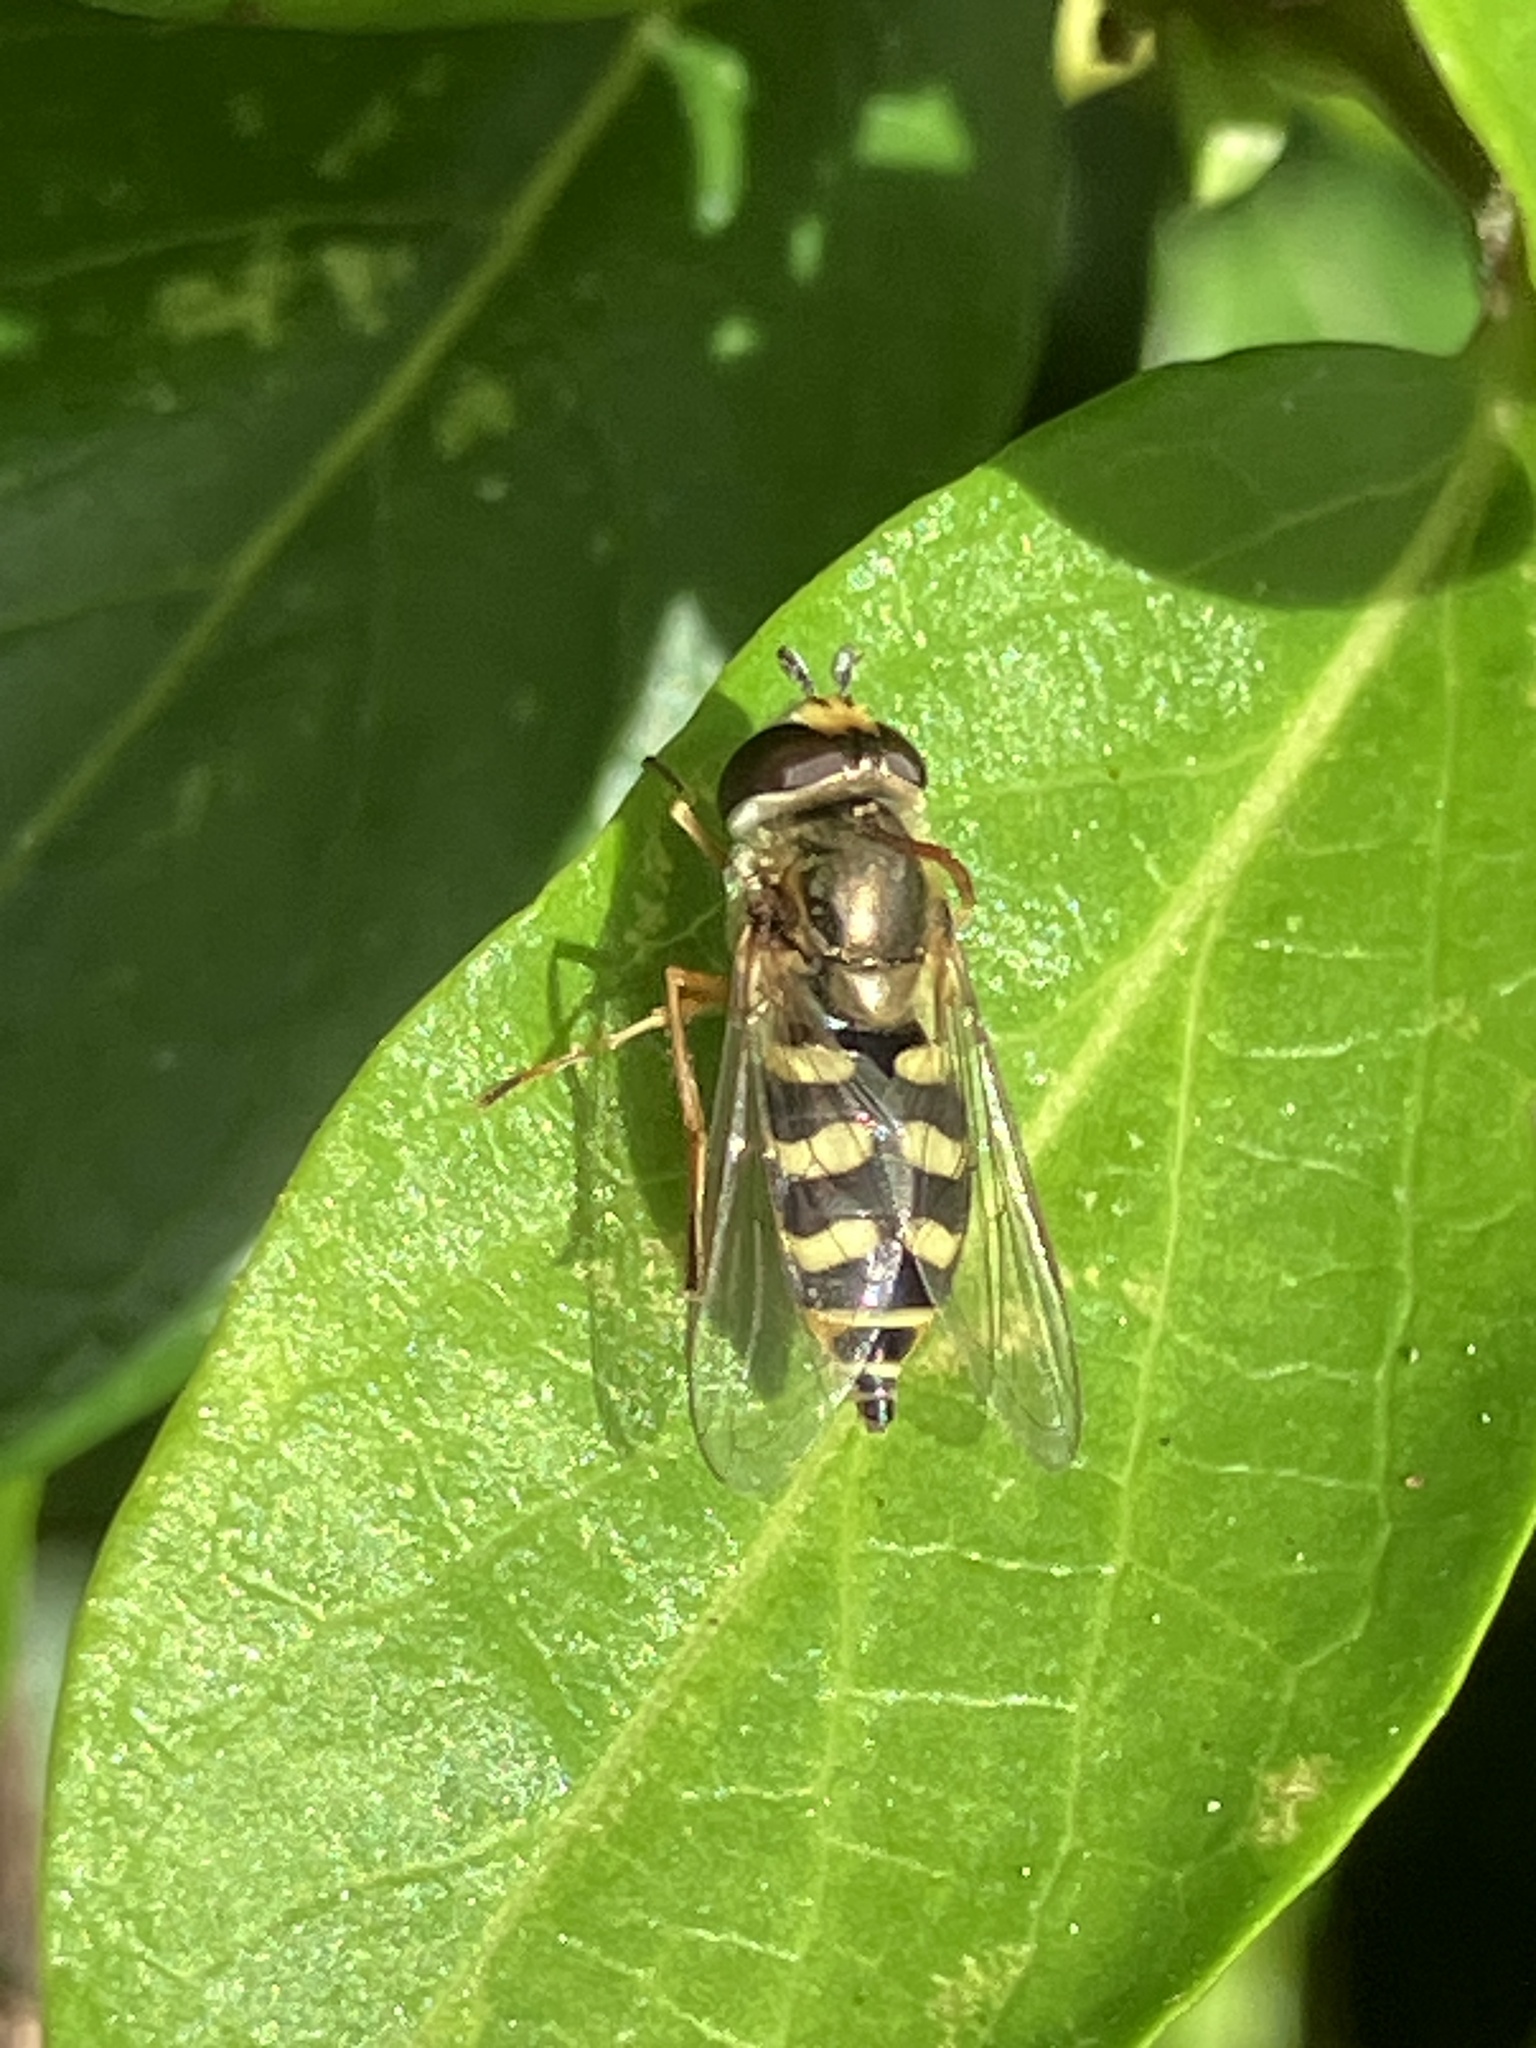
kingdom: Animalia
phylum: Arthropoda
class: Insecta
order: Diptera
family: Syrphidae
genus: Eupeodes
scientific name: Eupeodes corollae
